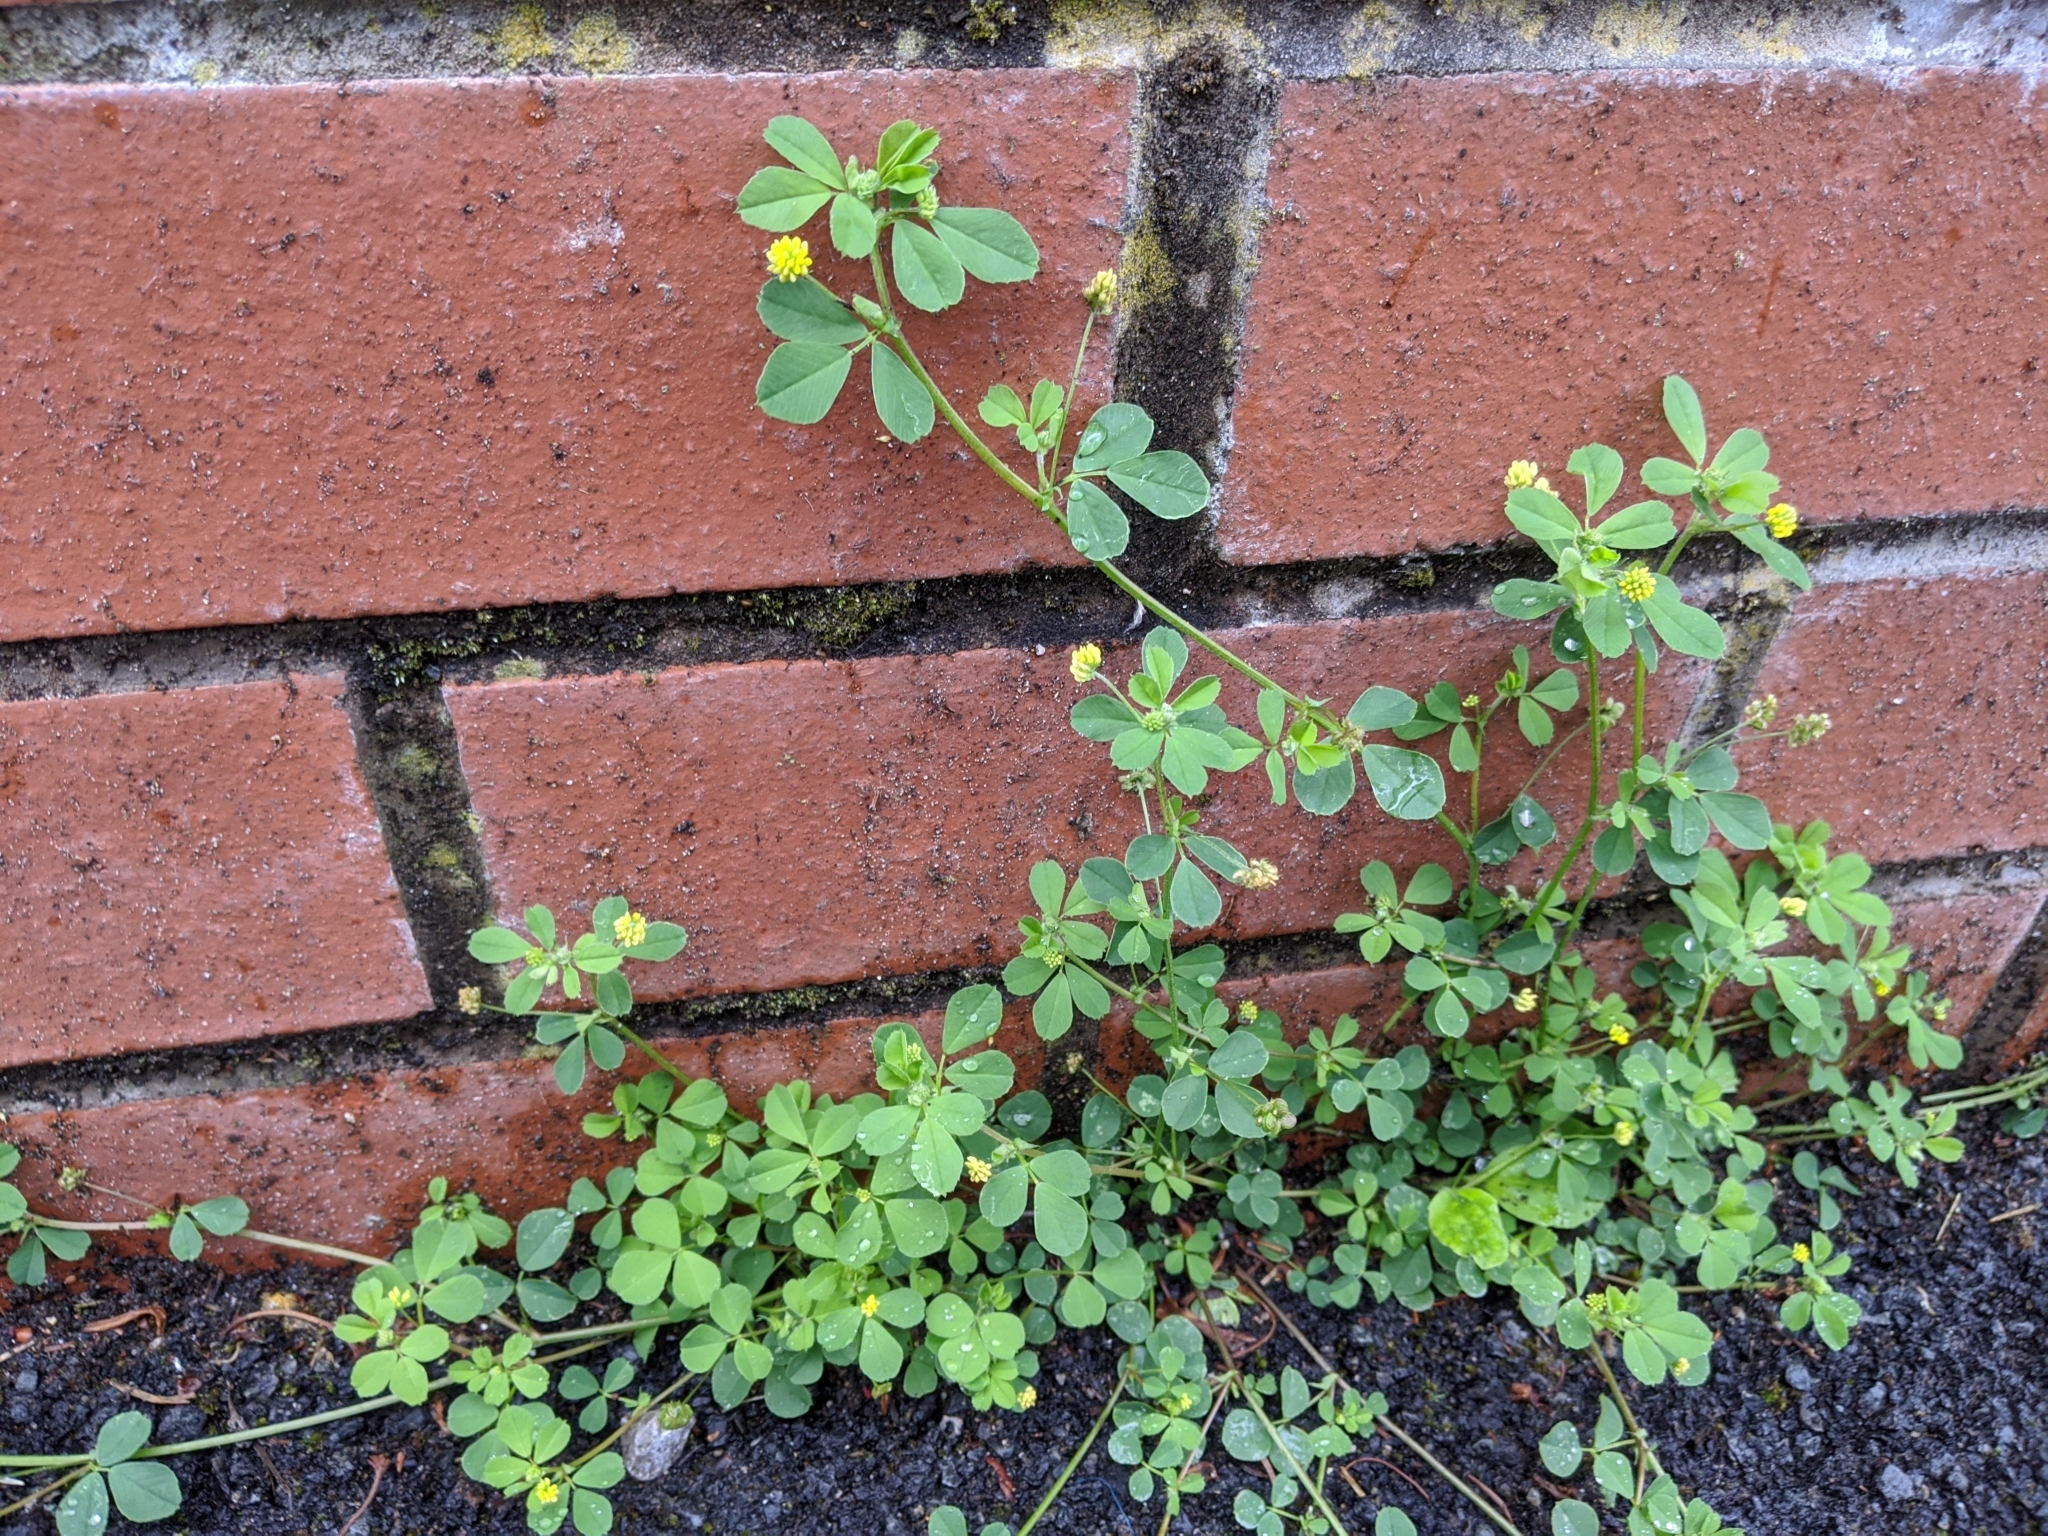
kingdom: Plantae
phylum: Tracheophyta
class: Magnoliopsida
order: Fabales
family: Fabaceae
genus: Medicago
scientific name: Medicago lupulina
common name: Black medick
